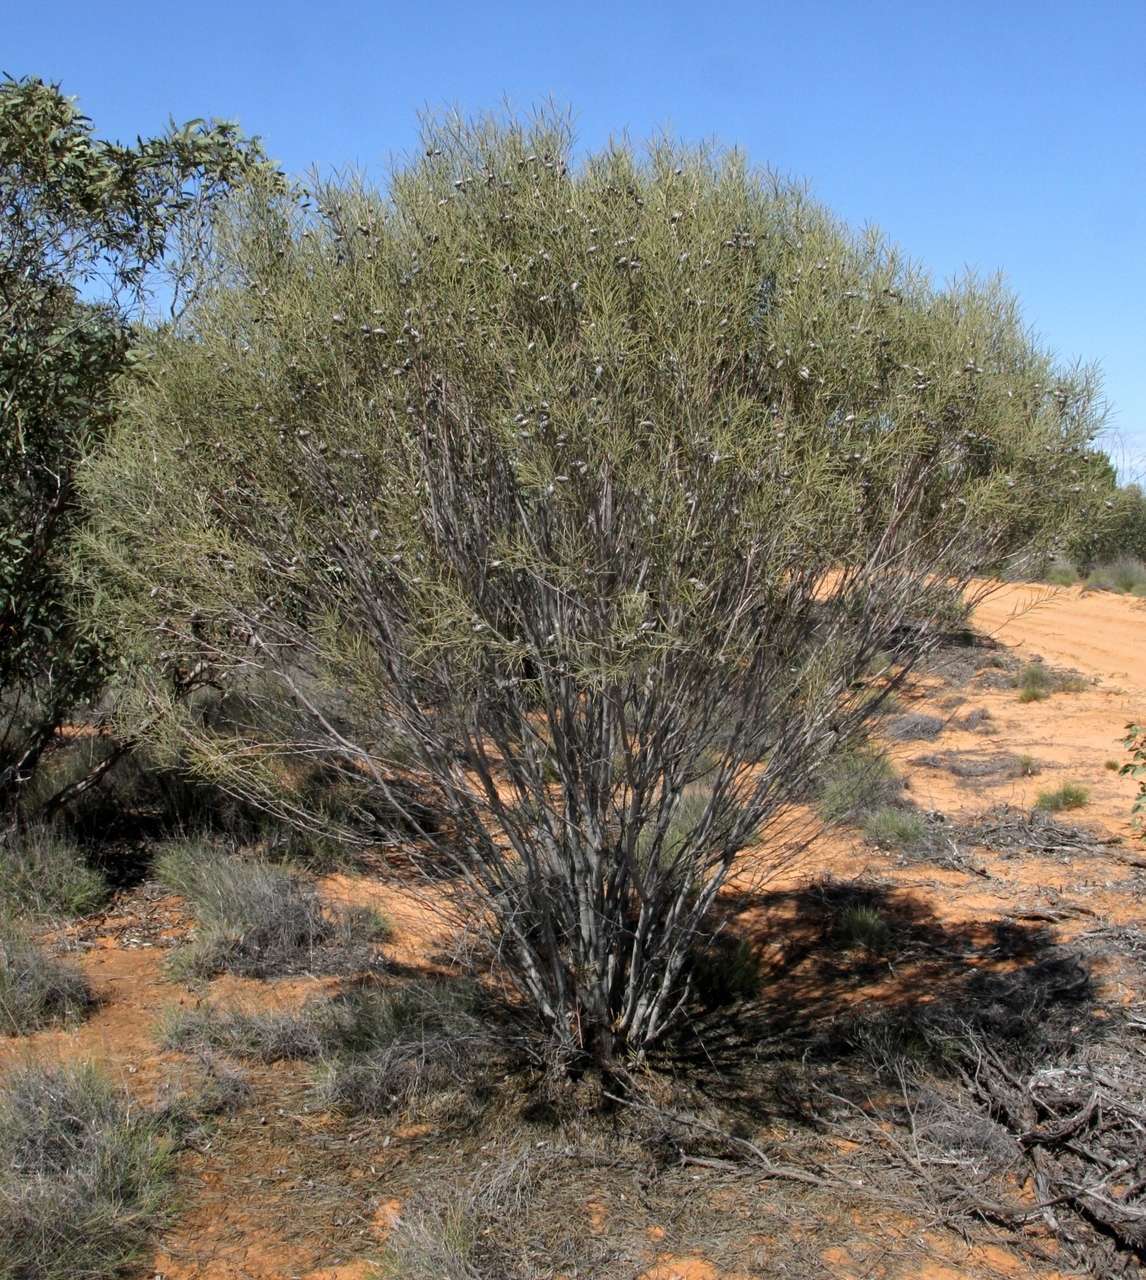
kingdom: Plantae
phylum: Tracheophyta
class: Magnoliopsida
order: Proteales
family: Proteaceae
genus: Hakea
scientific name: Hakea leucoptera
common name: Pinbush
